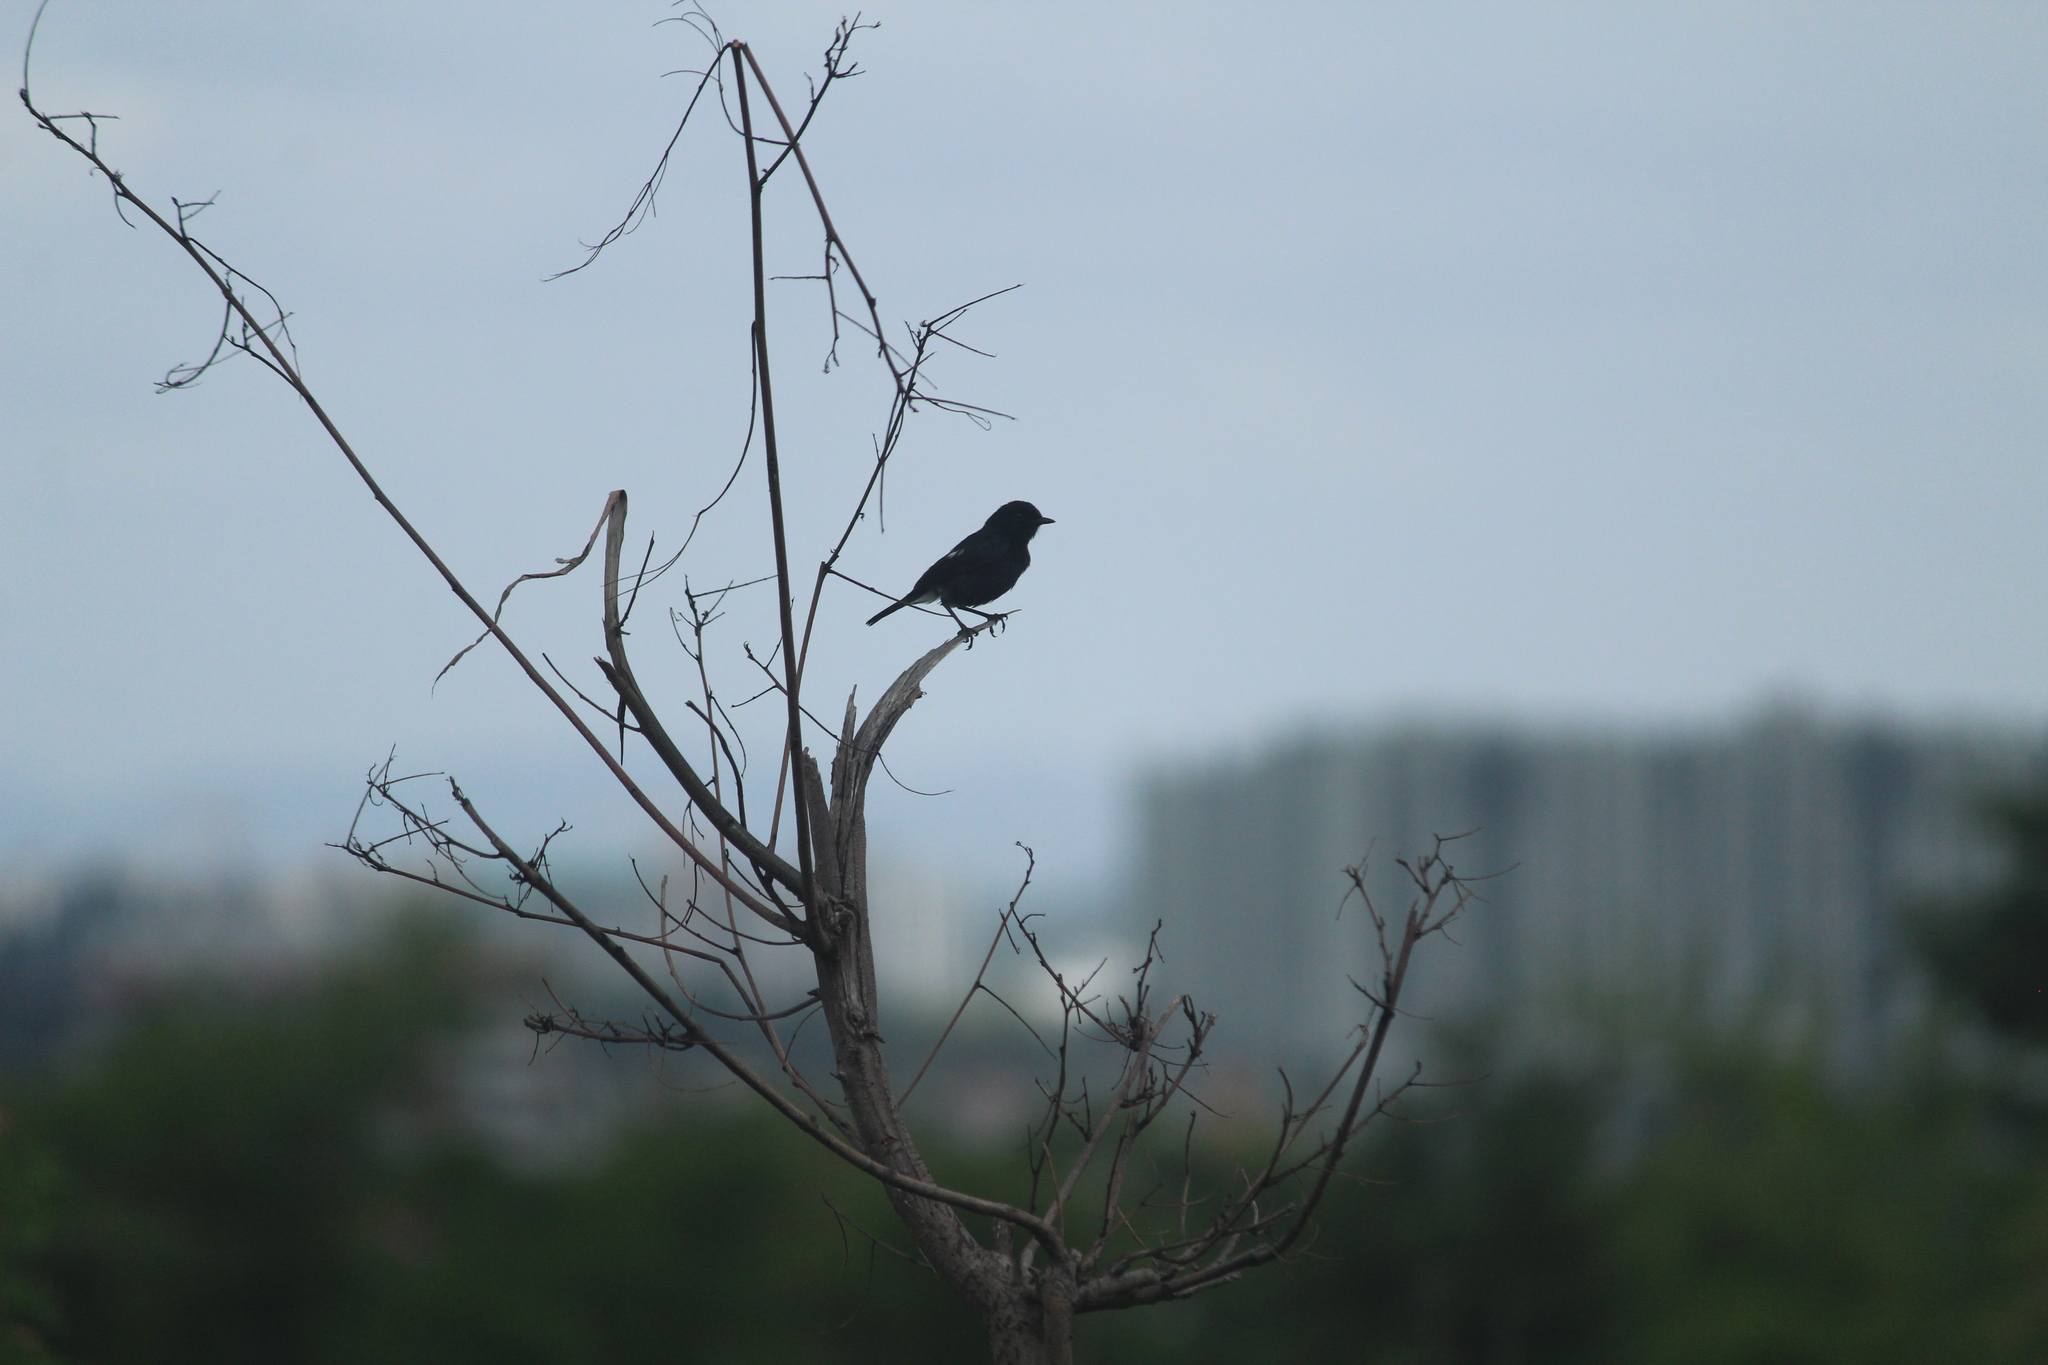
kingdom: Animalia
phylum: Chordata
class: Aves
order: Passeriformes
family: Muscicapidae
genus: Saxicola
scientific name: Saxicola caprata
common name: Pied bush chat
